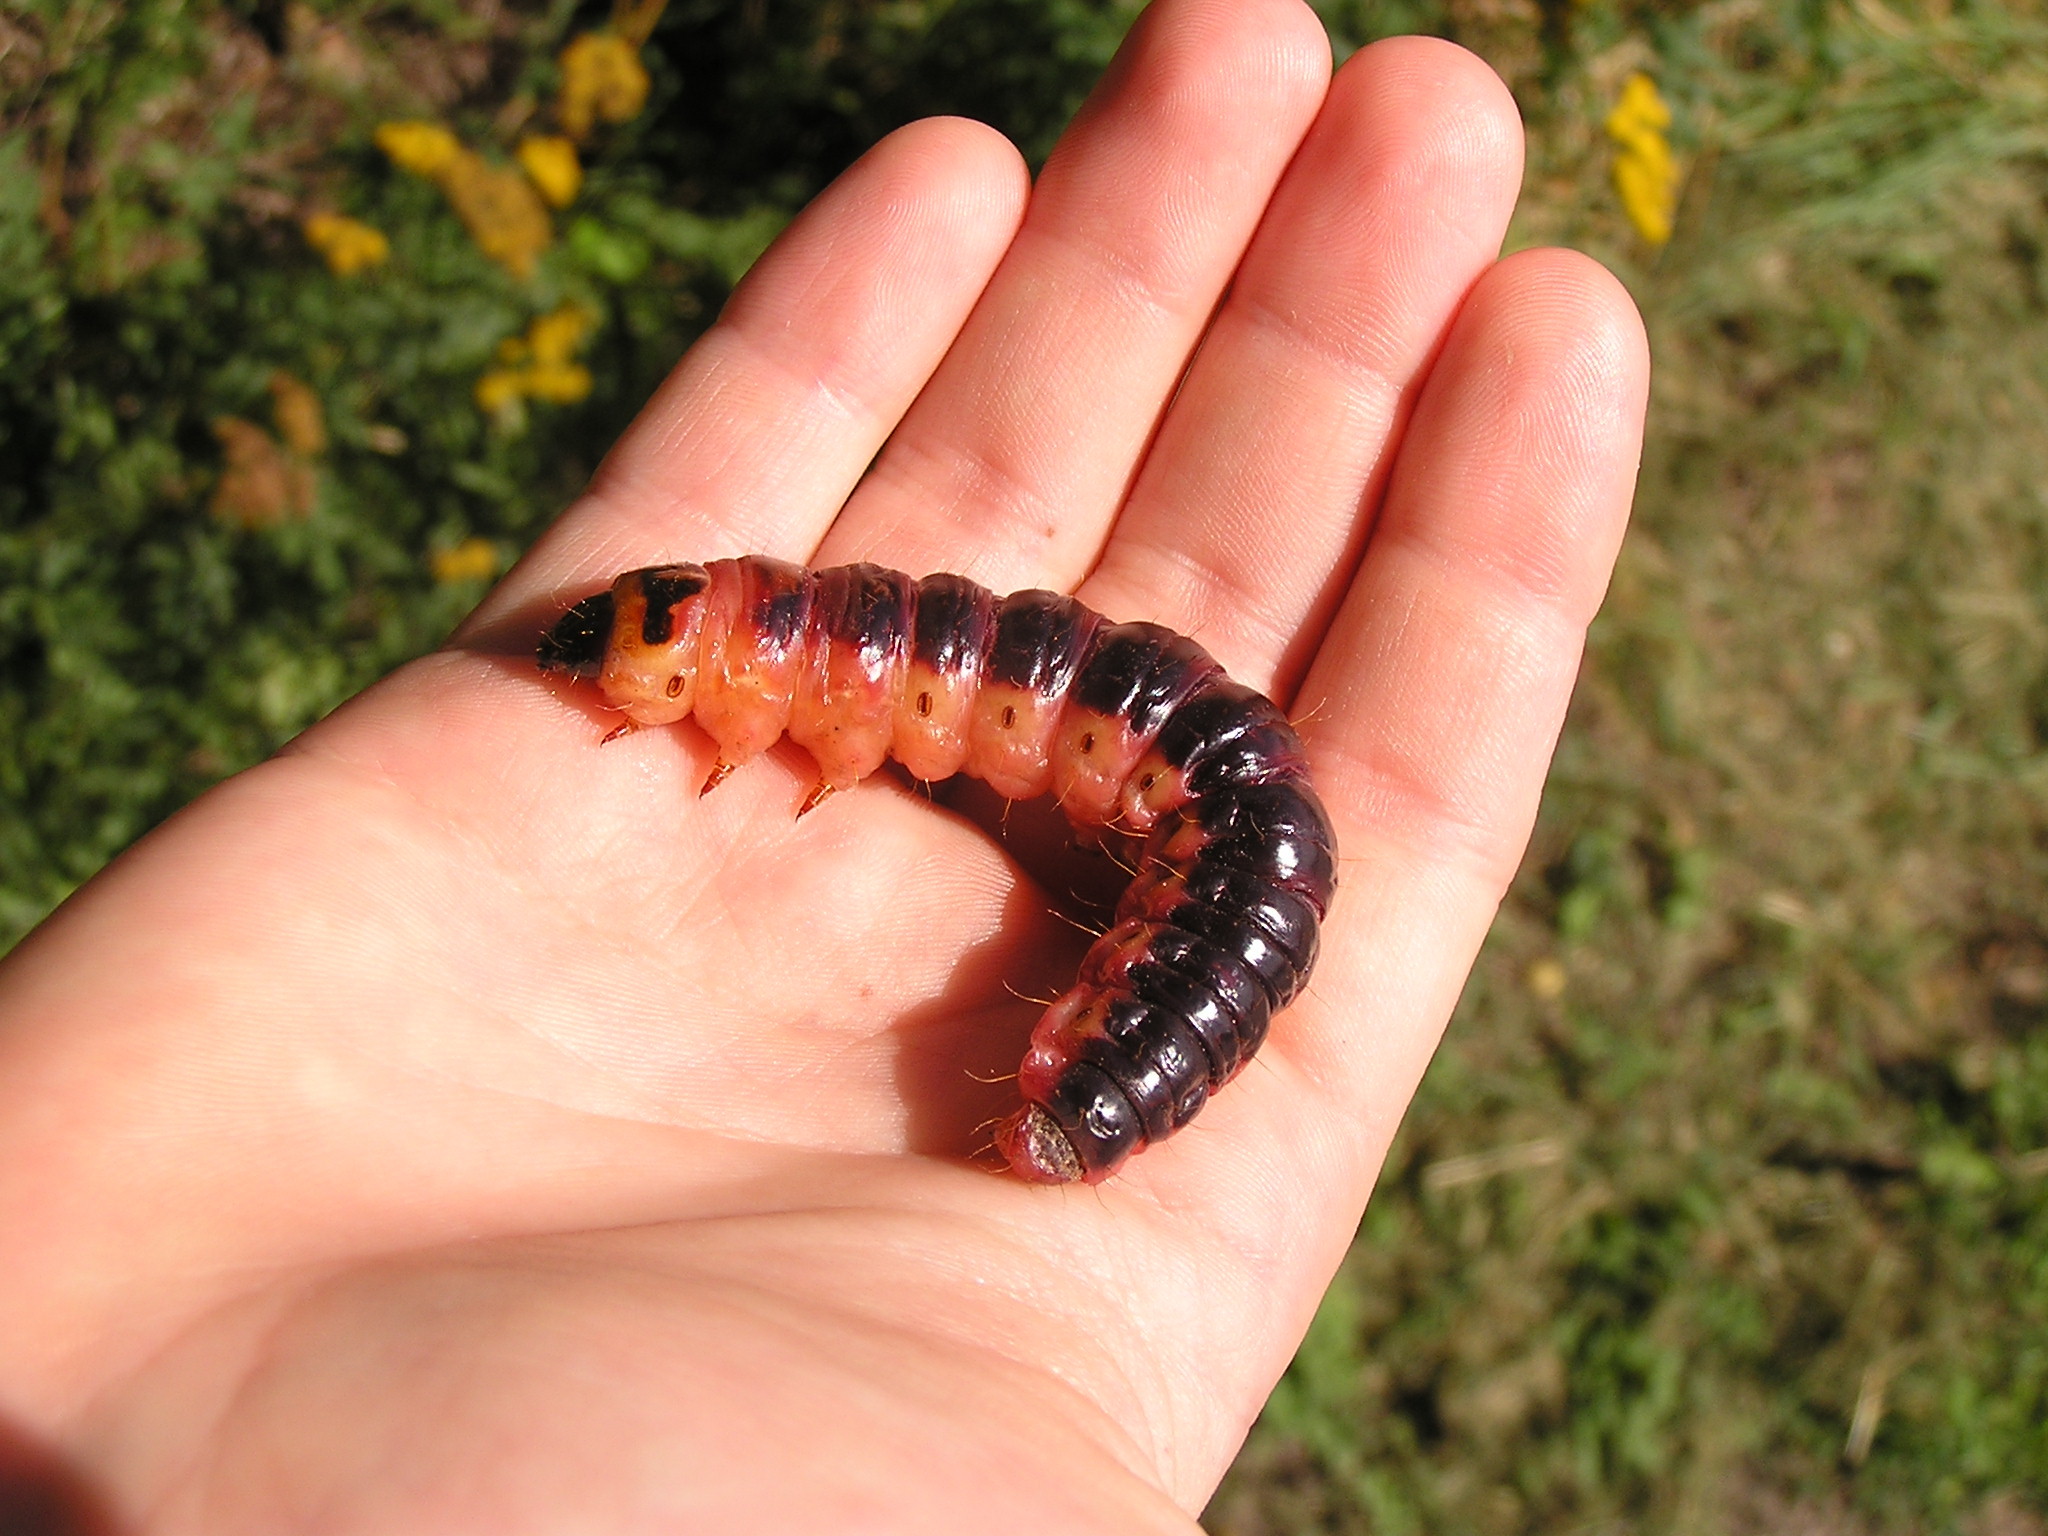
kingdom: Animalia
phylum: Arthropoda
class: Insecta
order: Lepidoptera
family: Cossidae
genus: Cossus
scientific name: Cossus cossus
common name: Goat moth
